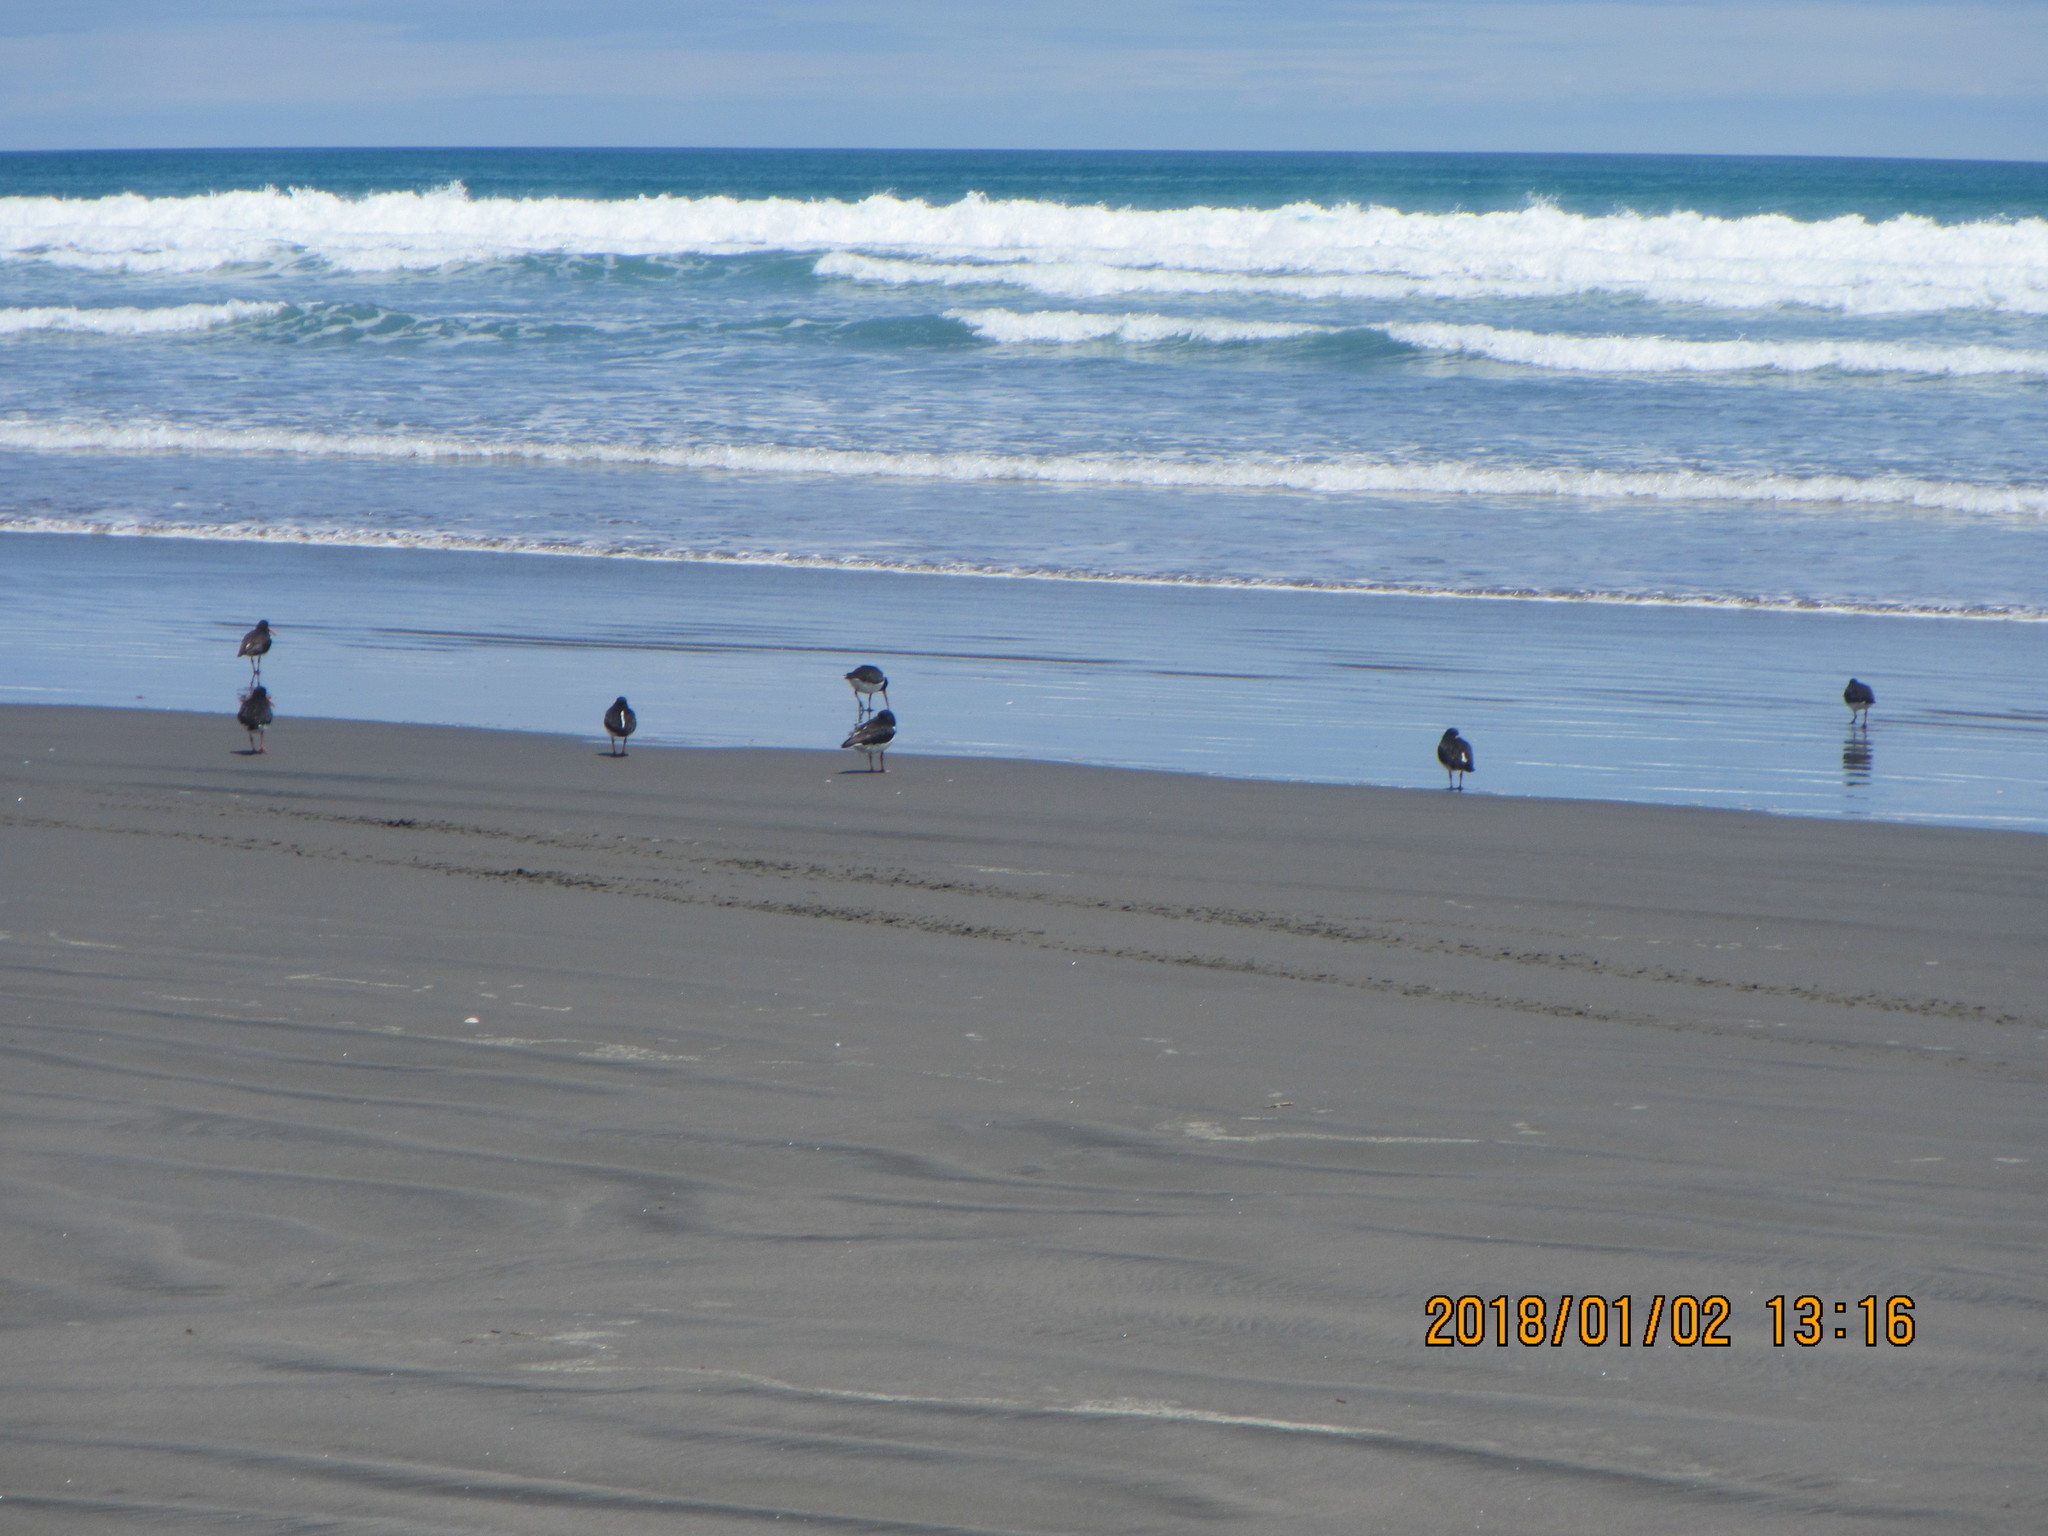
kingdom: Animalia
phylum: Chordata
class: Aves
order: Charadriiformes
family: Haematopodidae
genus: Haematopus
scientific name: Haematopus finschi
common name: South island oystercatcher
